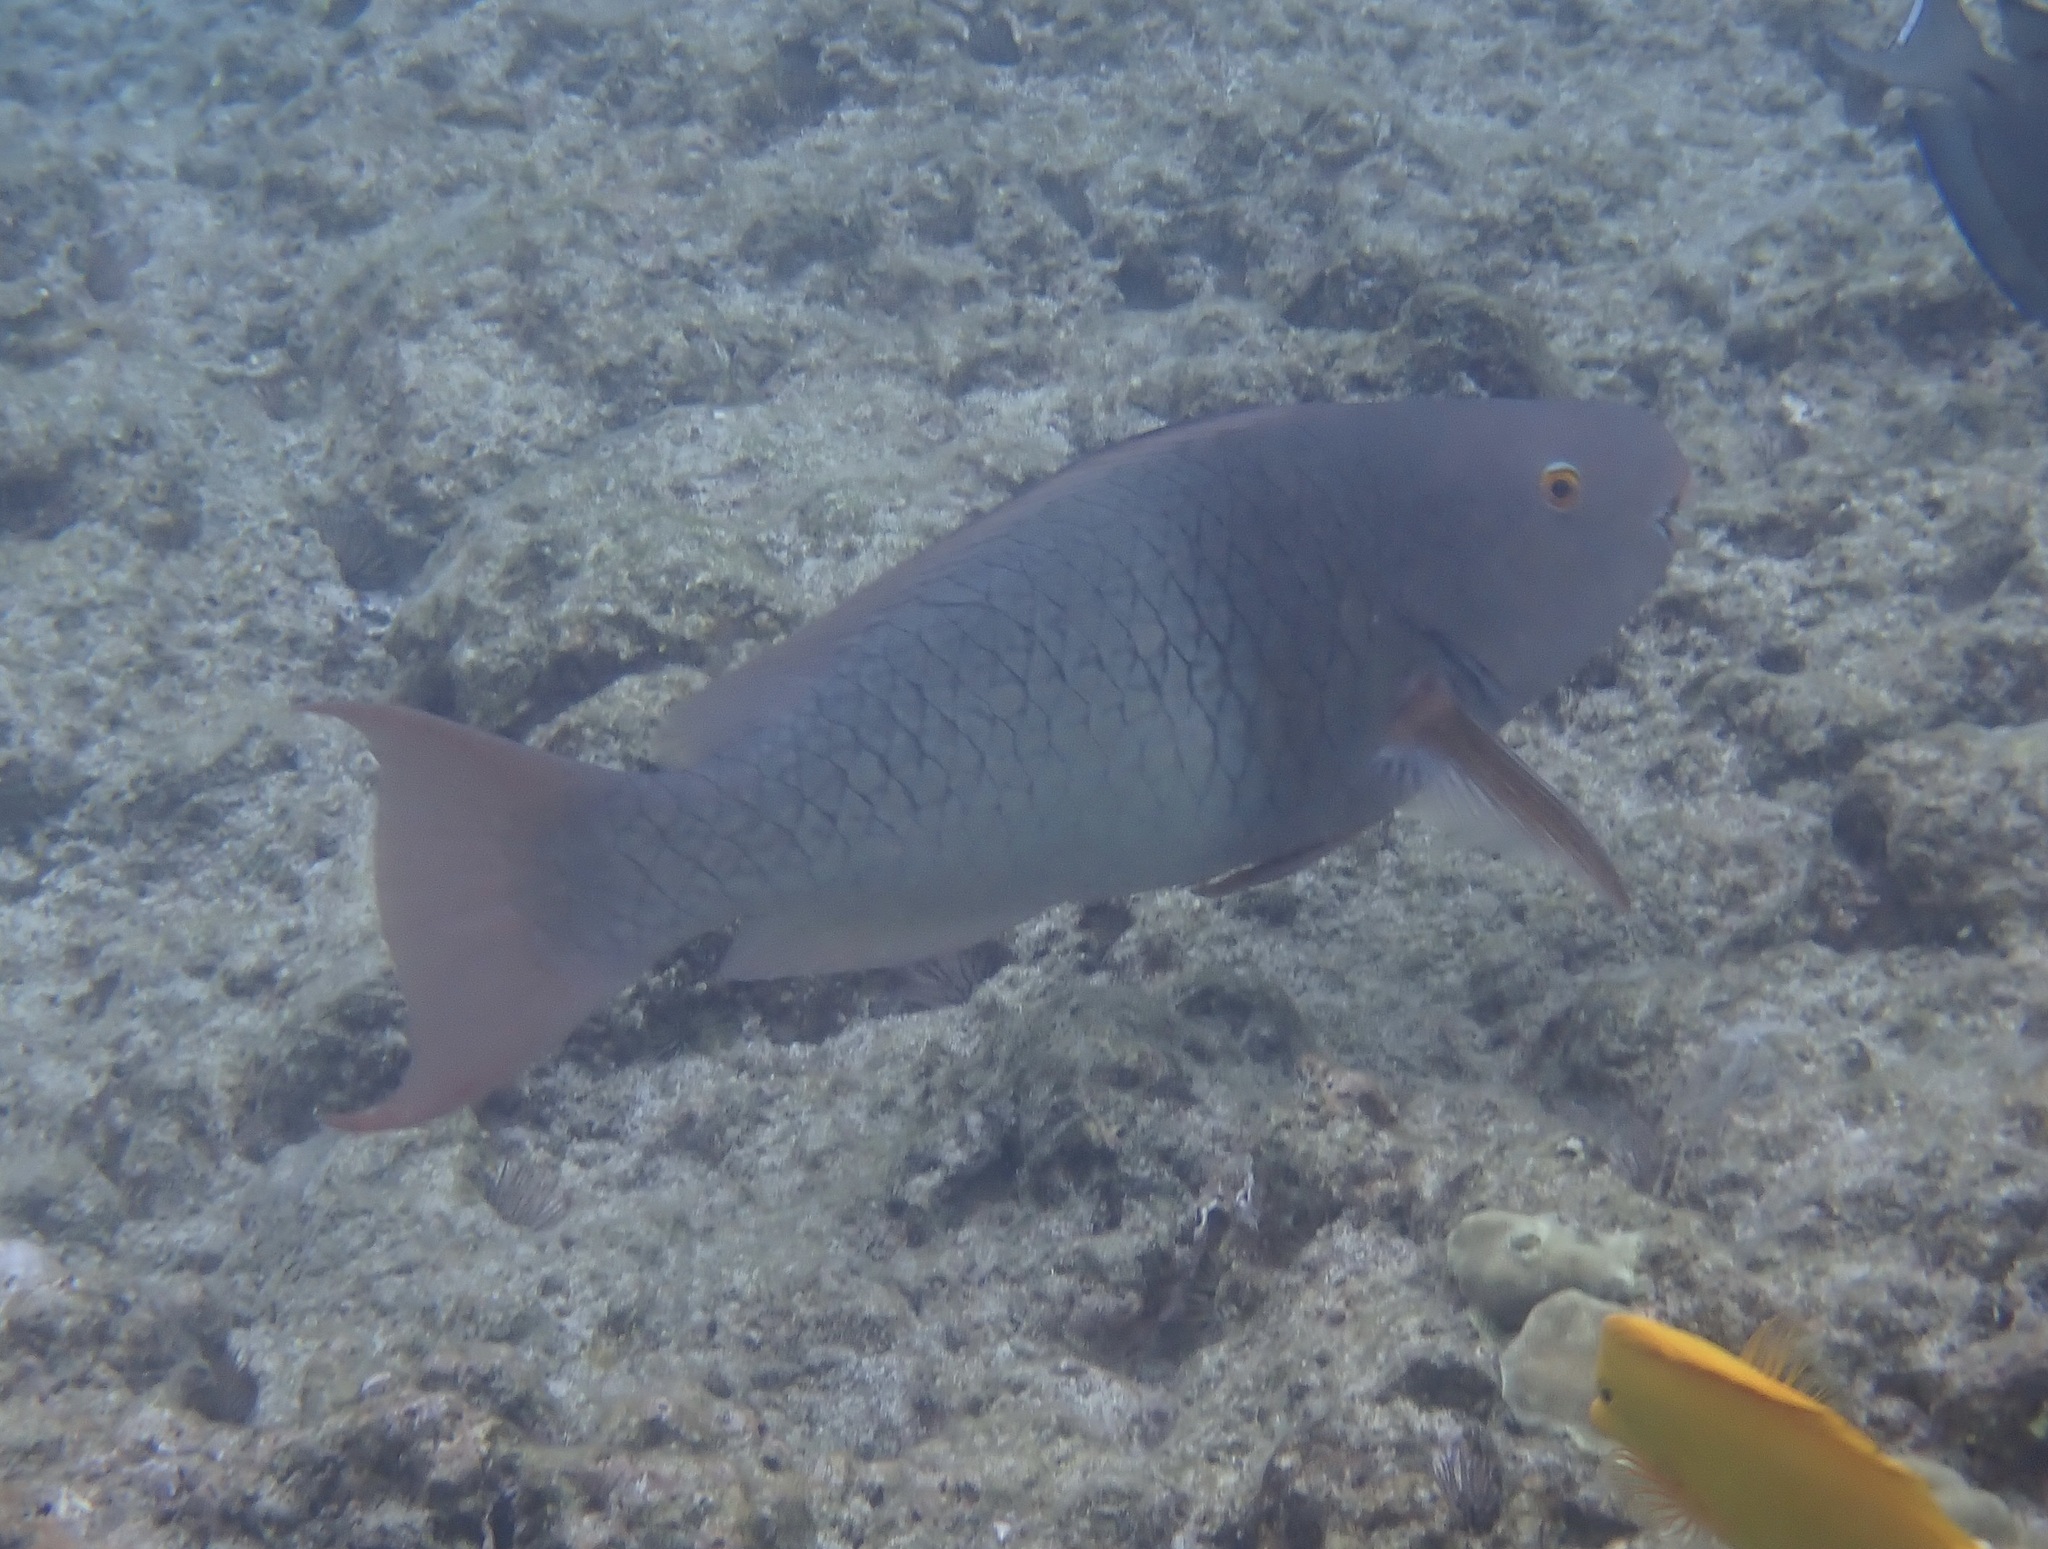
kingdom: Animalia
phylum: Chordata
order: Perciformes
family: Scaridae
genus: Scarus
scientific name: Scarus rubroviolaceus
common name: Ember parrotfish
